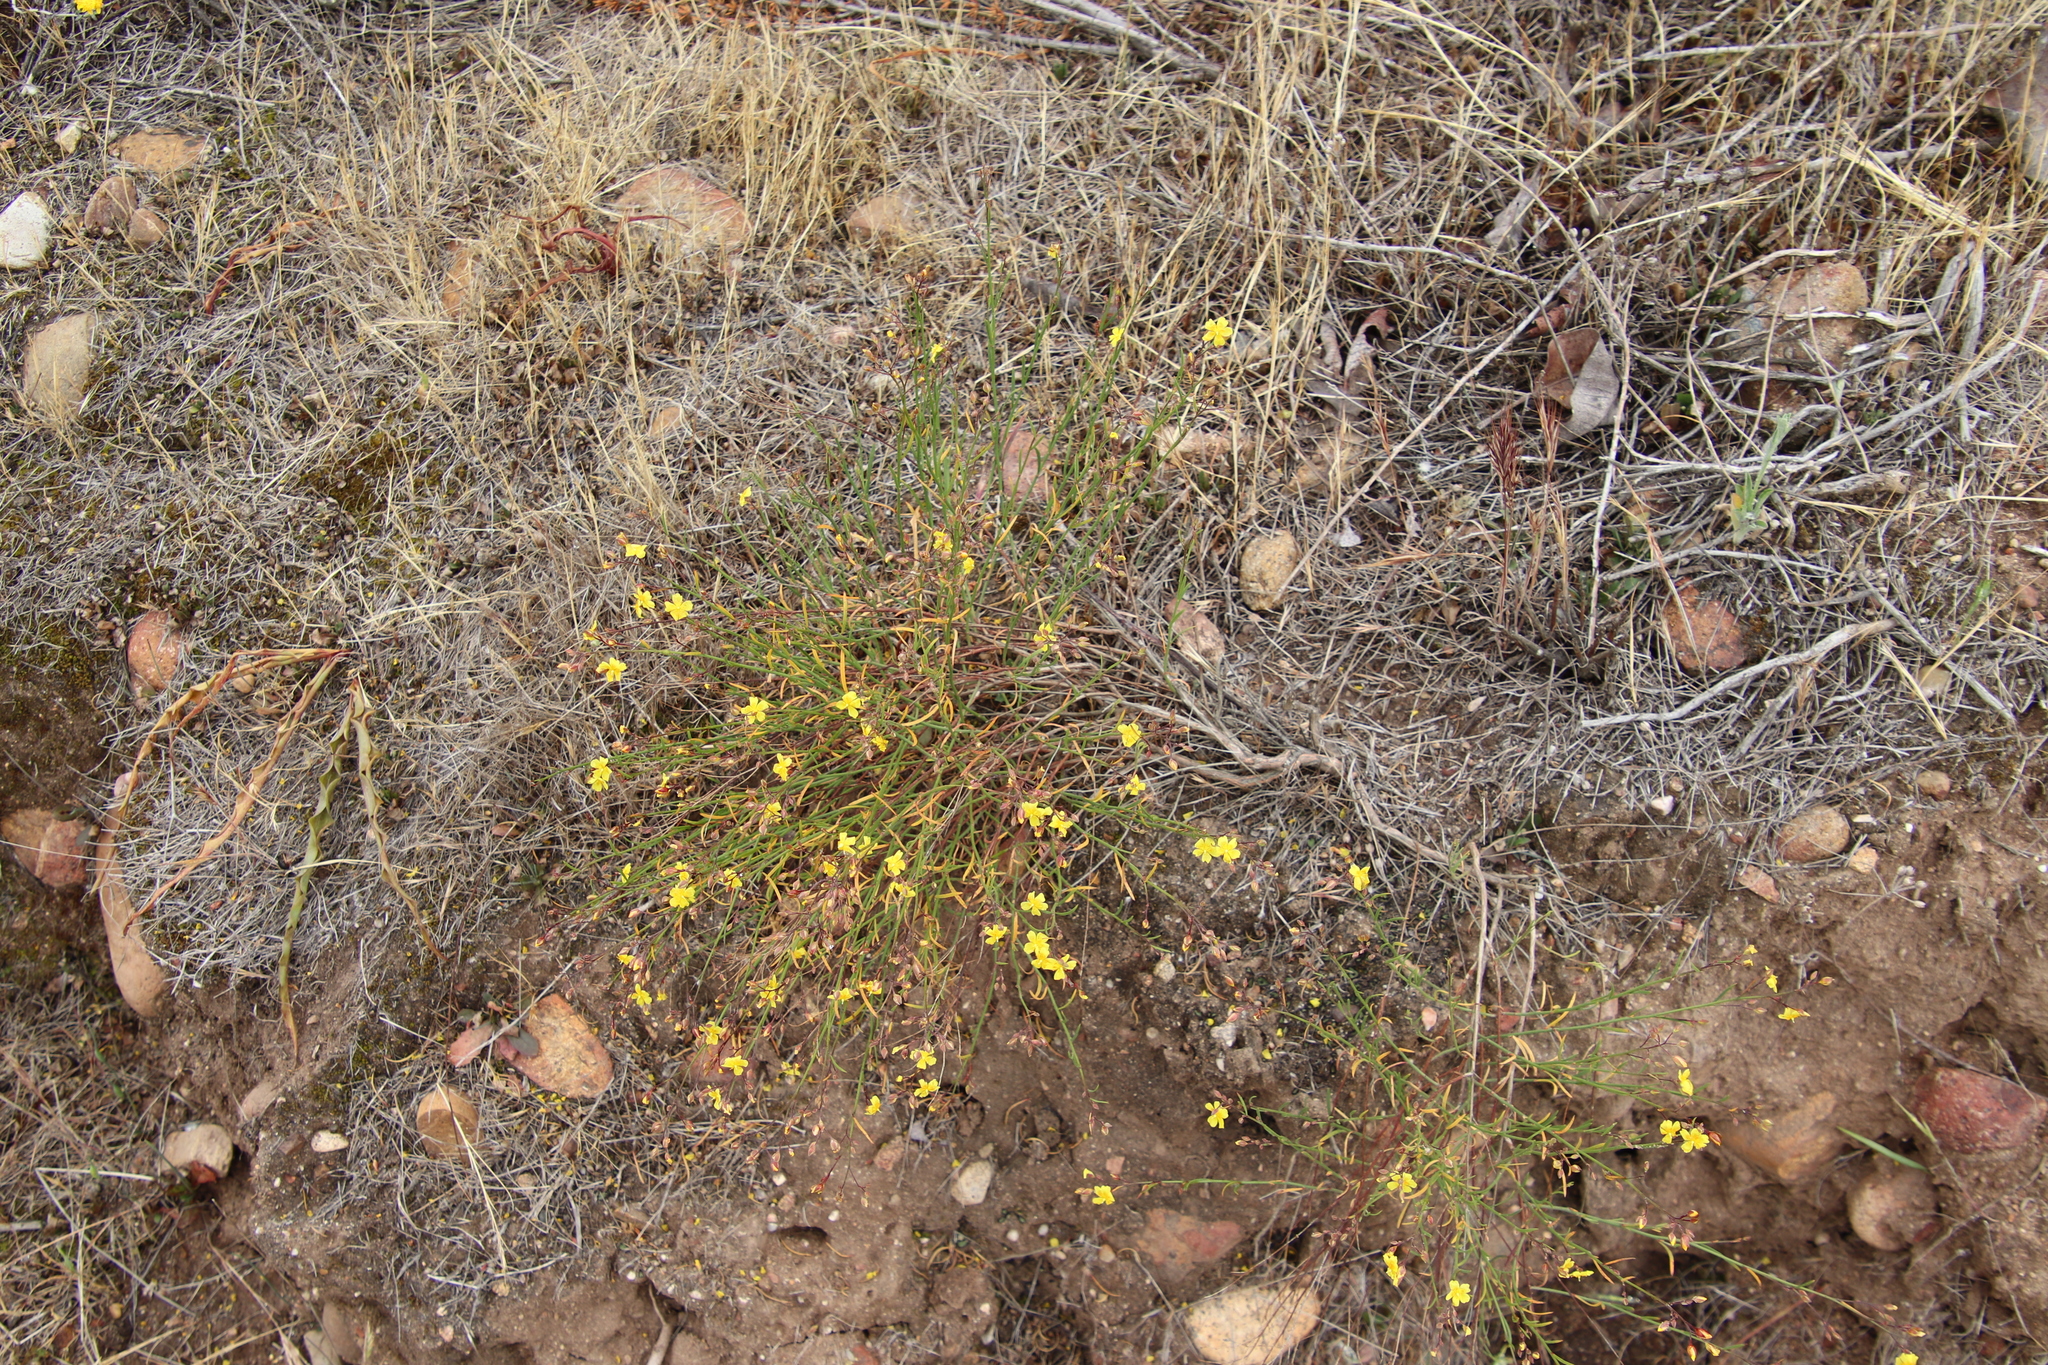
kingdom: Plantae
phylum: Tracheophyta
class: Magnoliopsida
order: Malvales
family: Cistaceae
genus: Crocanthemum
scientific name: Crocanthemum scoparium
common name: Broom-rose
